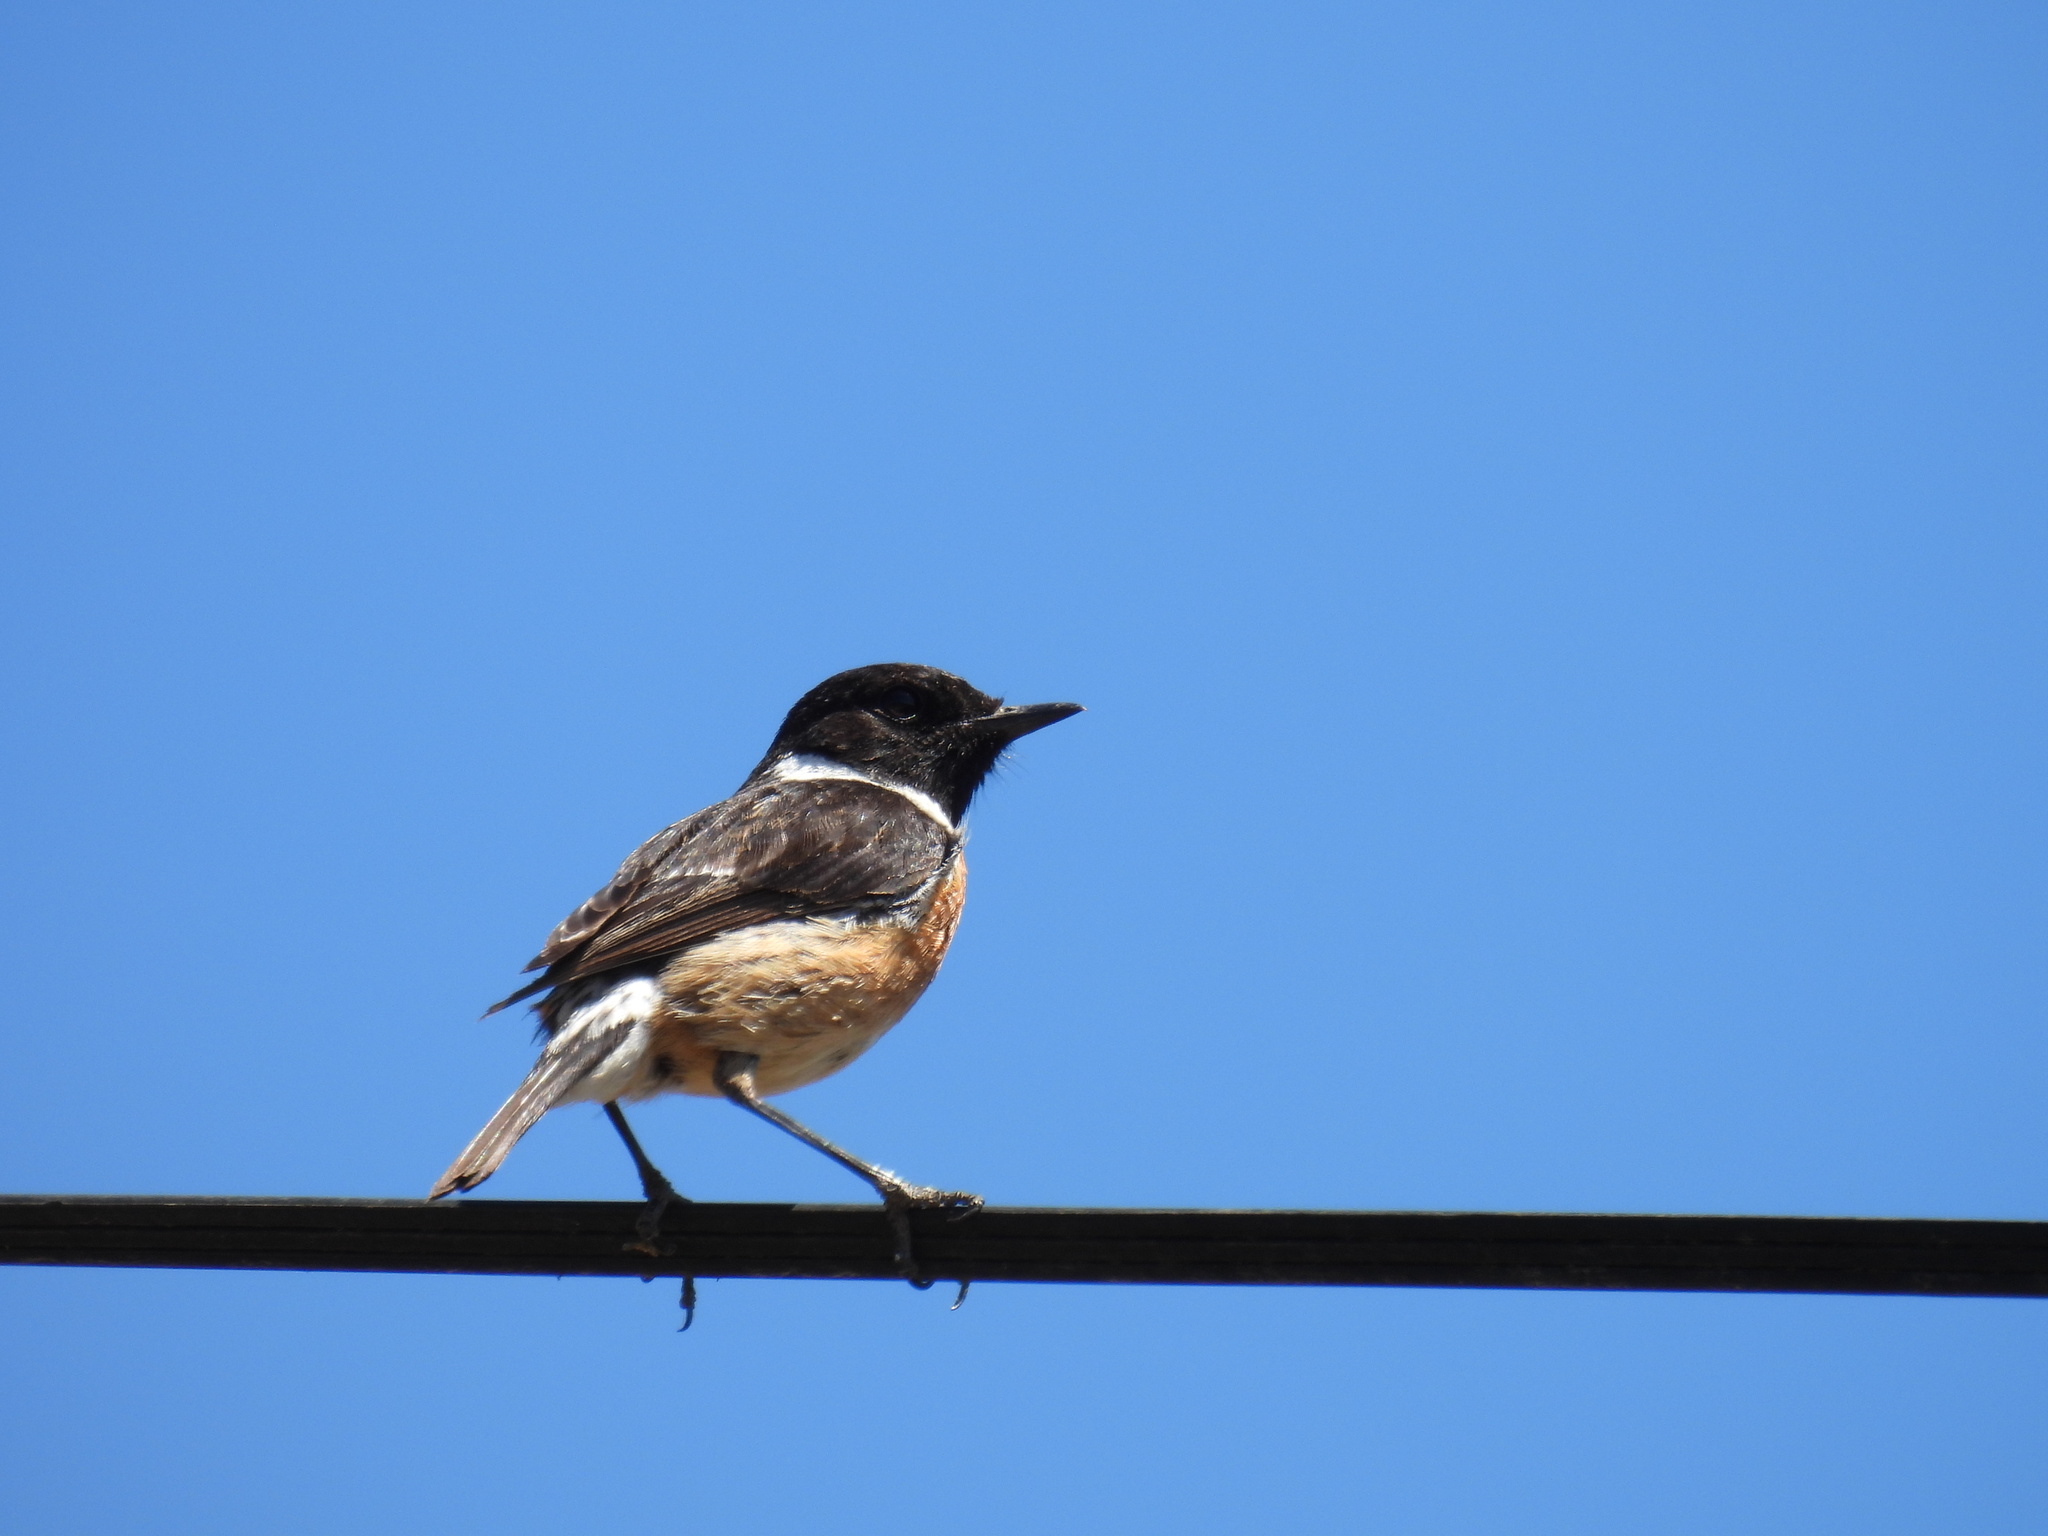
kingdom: Animalia
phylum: Chordata
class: Aves
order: Passeriformes
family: Muscicapidae
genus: Saxicola
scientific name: Saxicola rubicola
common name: European stonechat
